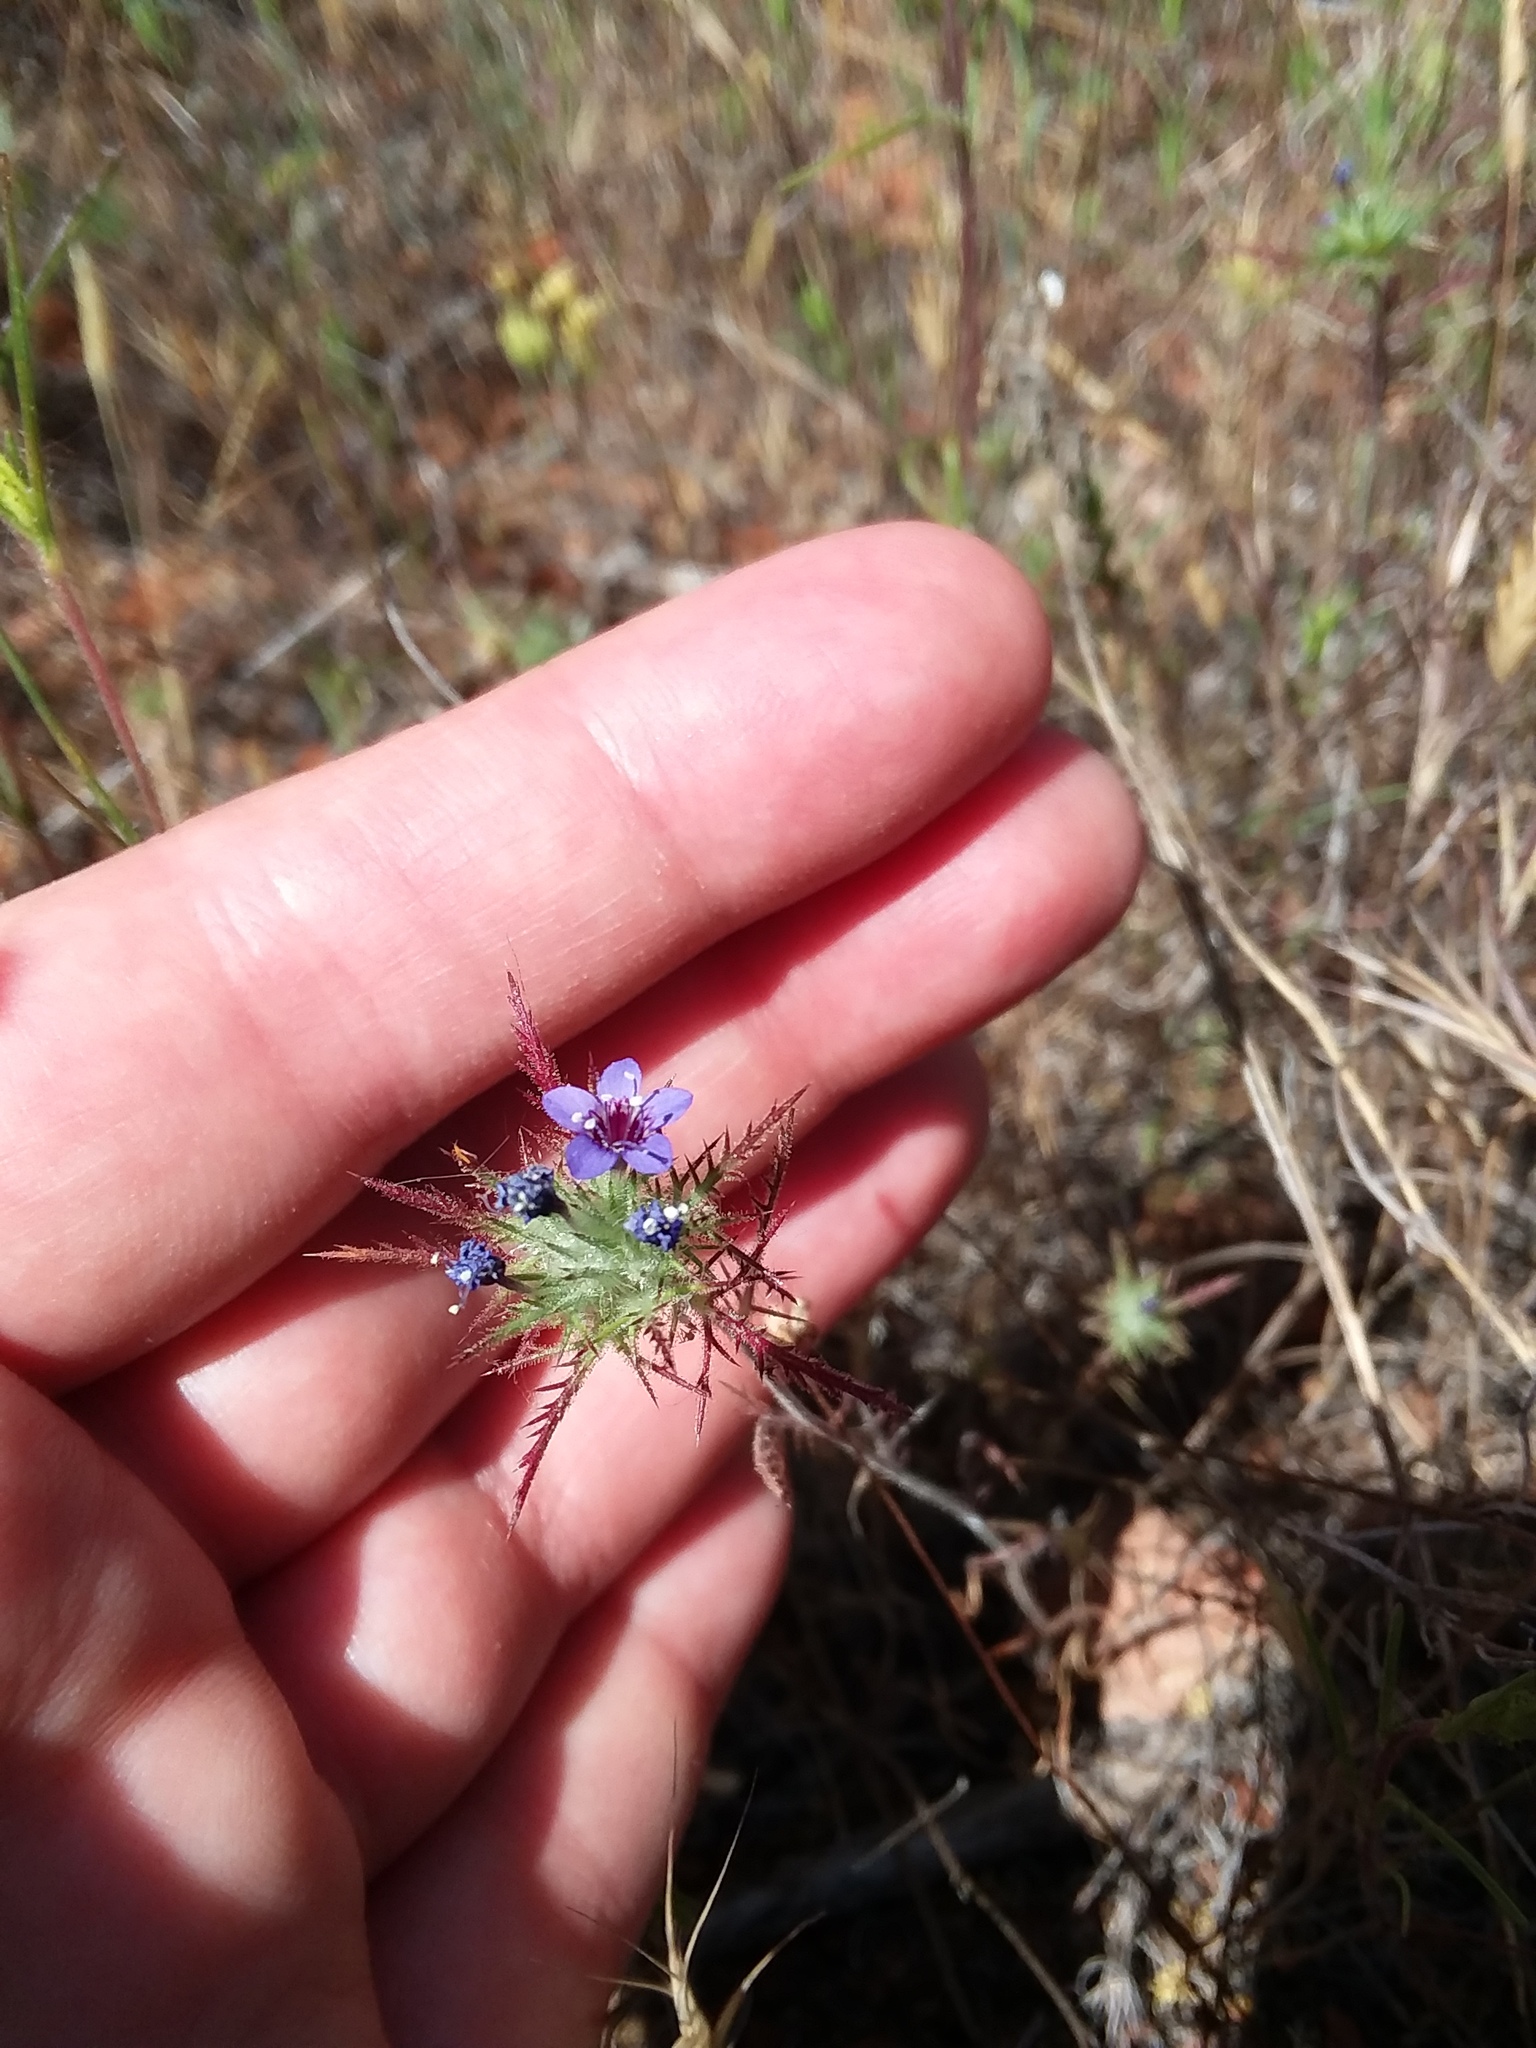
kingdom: Plantae
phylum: Tracheophyta
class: Magnoliopsida
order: Ericales
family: Polemoniaceae
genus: Navarretia
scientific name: Navarretia pubescens
